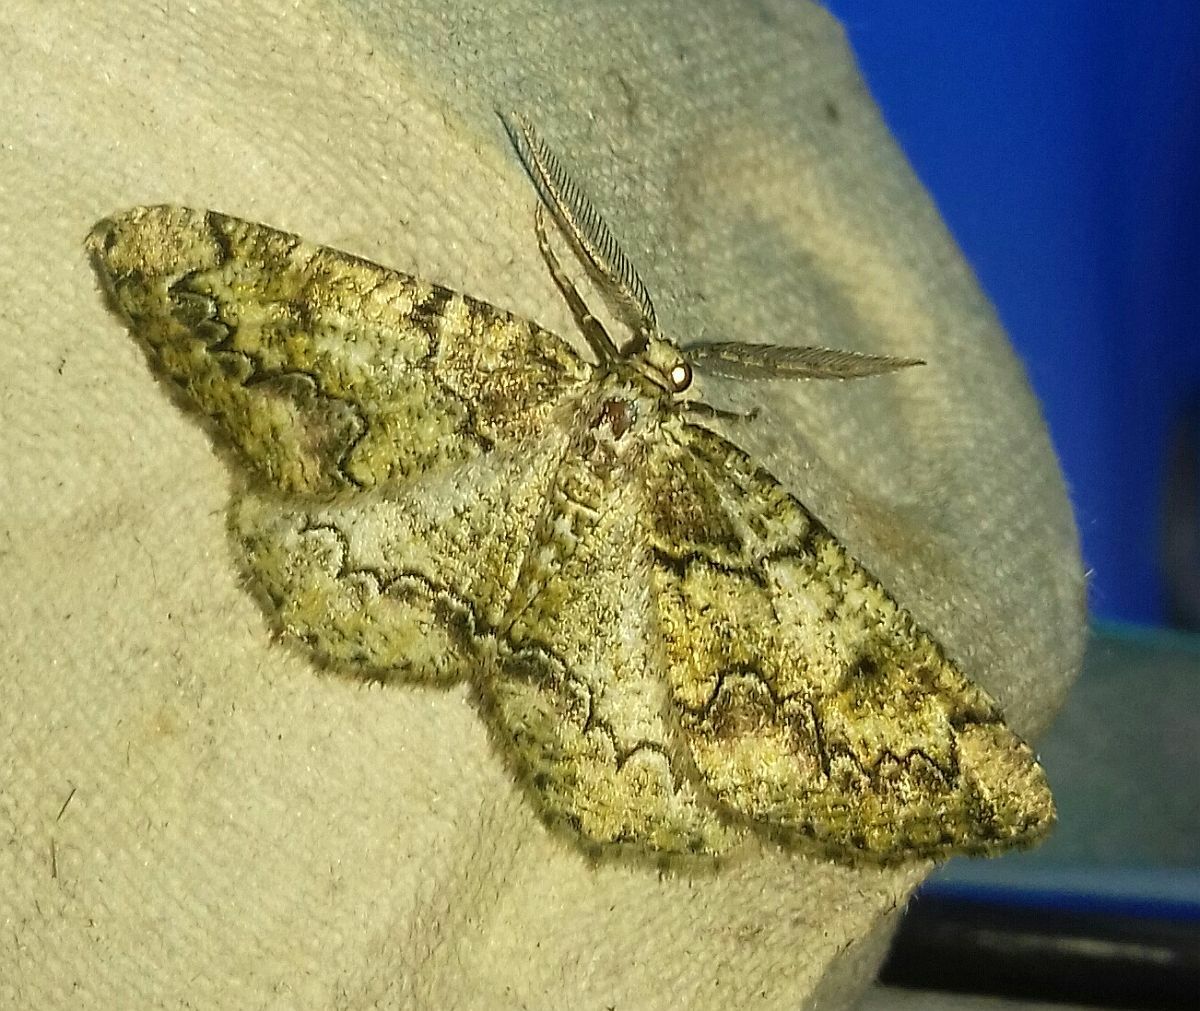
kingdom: Animalia
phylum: Arthropoda
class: Insecta
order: Lepidoptera
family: Geometridae
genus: Cleorodes
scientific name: Cleorodes lichenaria
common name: Brussels lace
